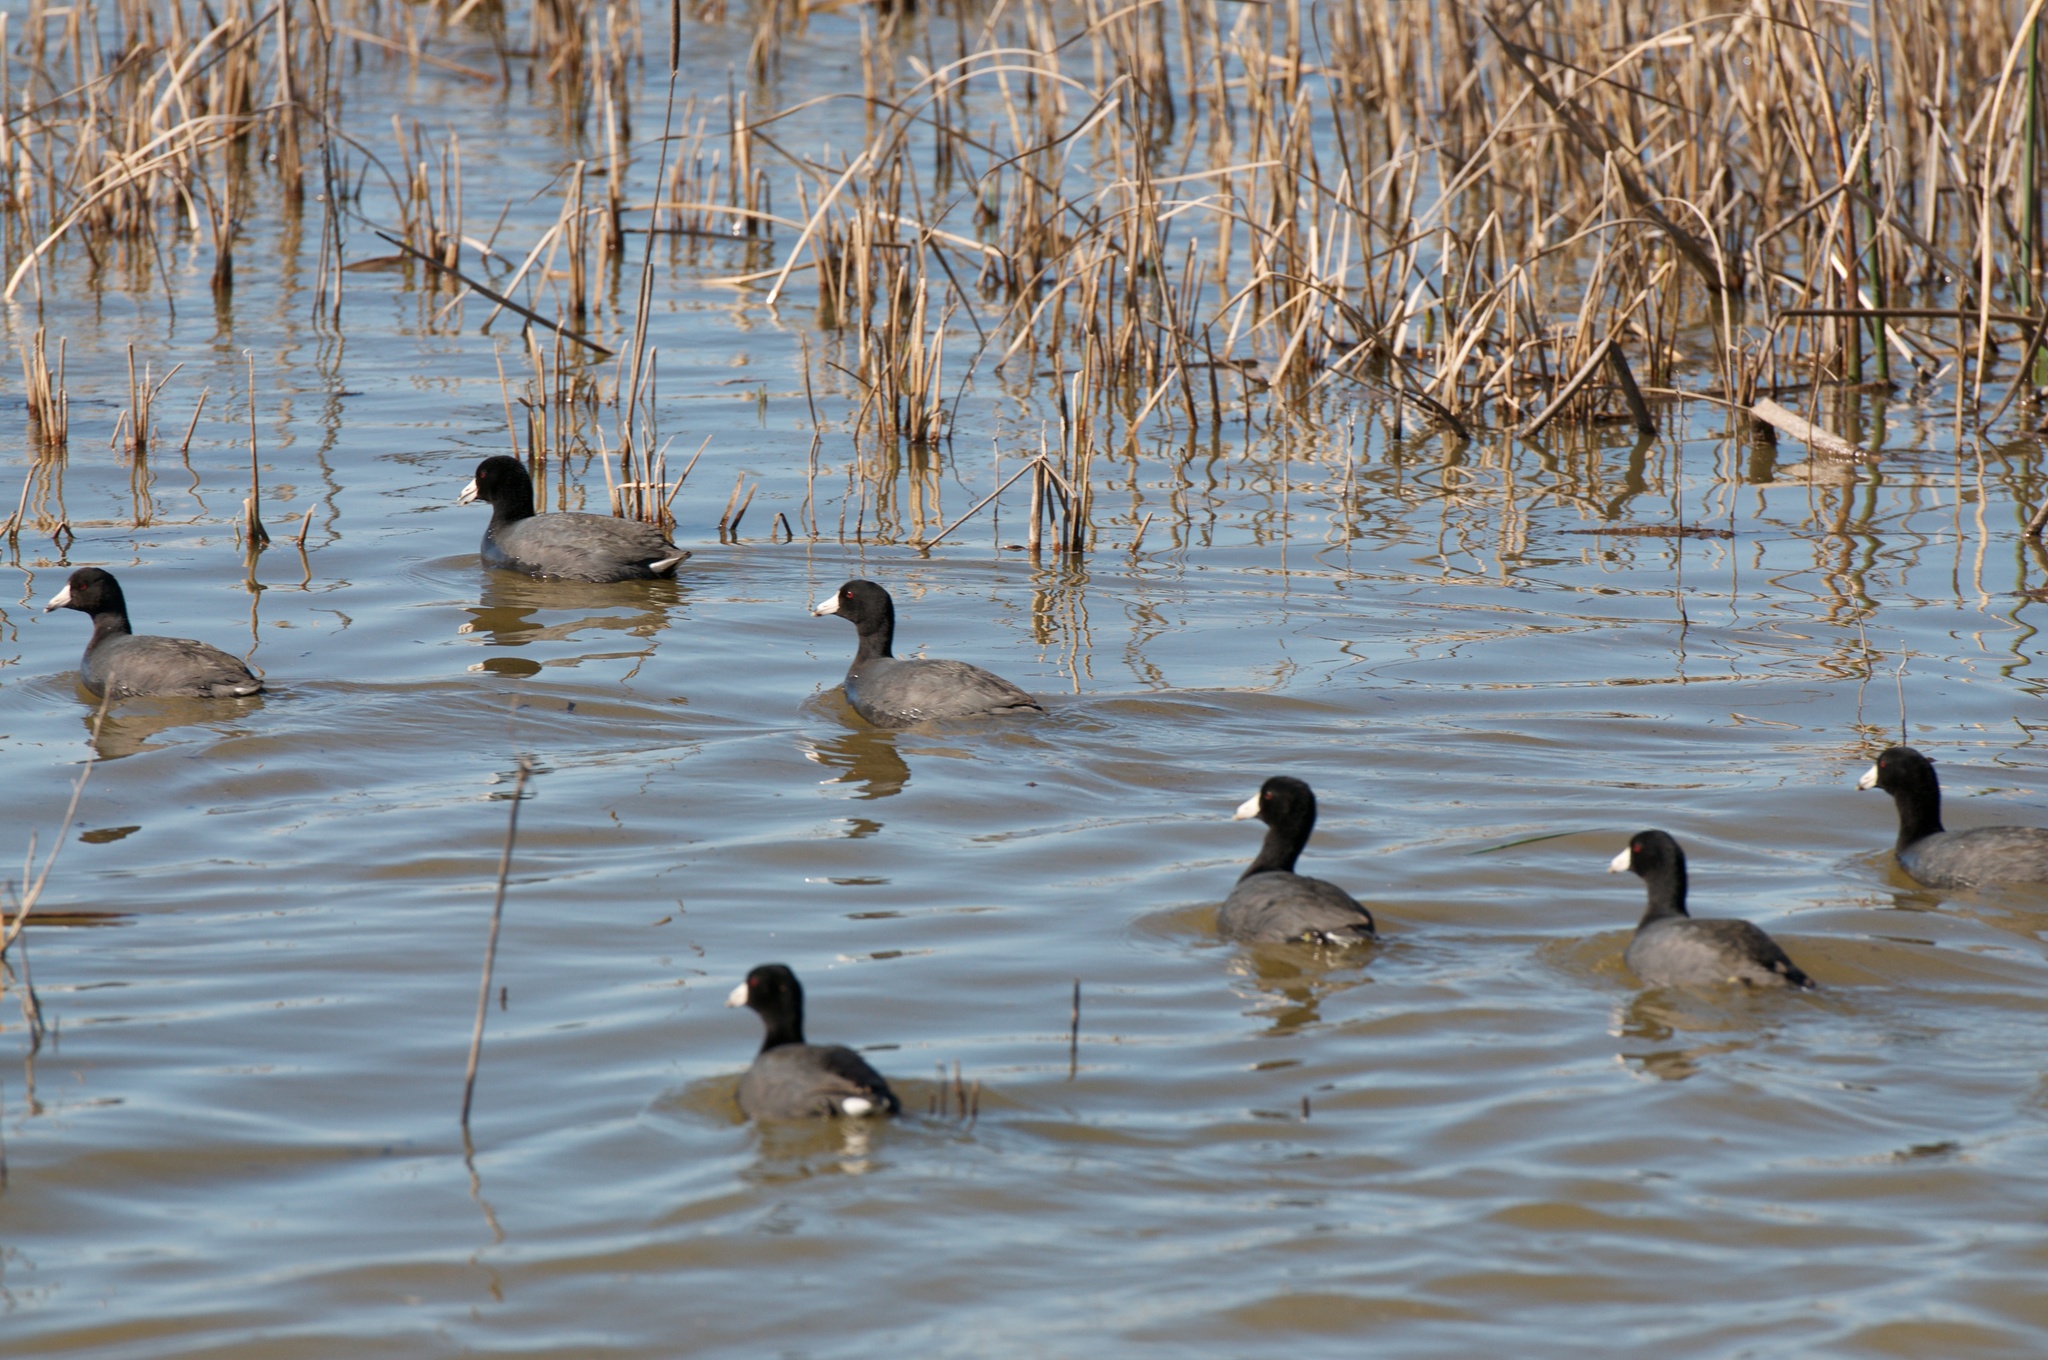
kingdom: Animalia
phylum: Chordata
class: Aves
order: Gruiformes
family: Rallidae
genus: Fulica
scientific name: Fulica americana
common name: American coot
